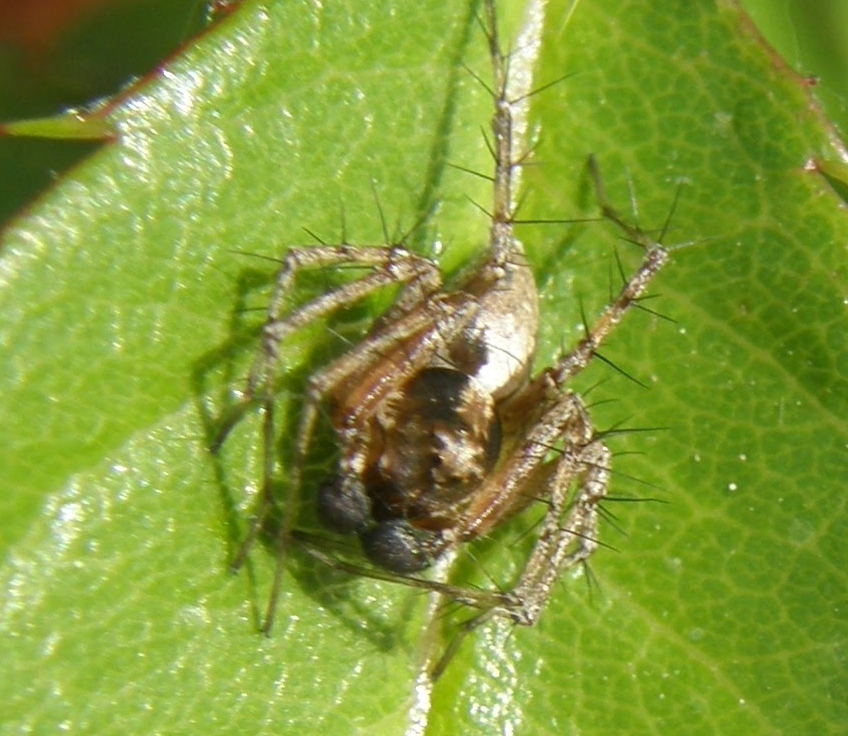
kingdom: Animalia
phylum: Arthropoda
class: Arachnida
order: Araneae
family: Oxyopidae
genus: Oxyopes
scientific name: Oxyopes scalaris
